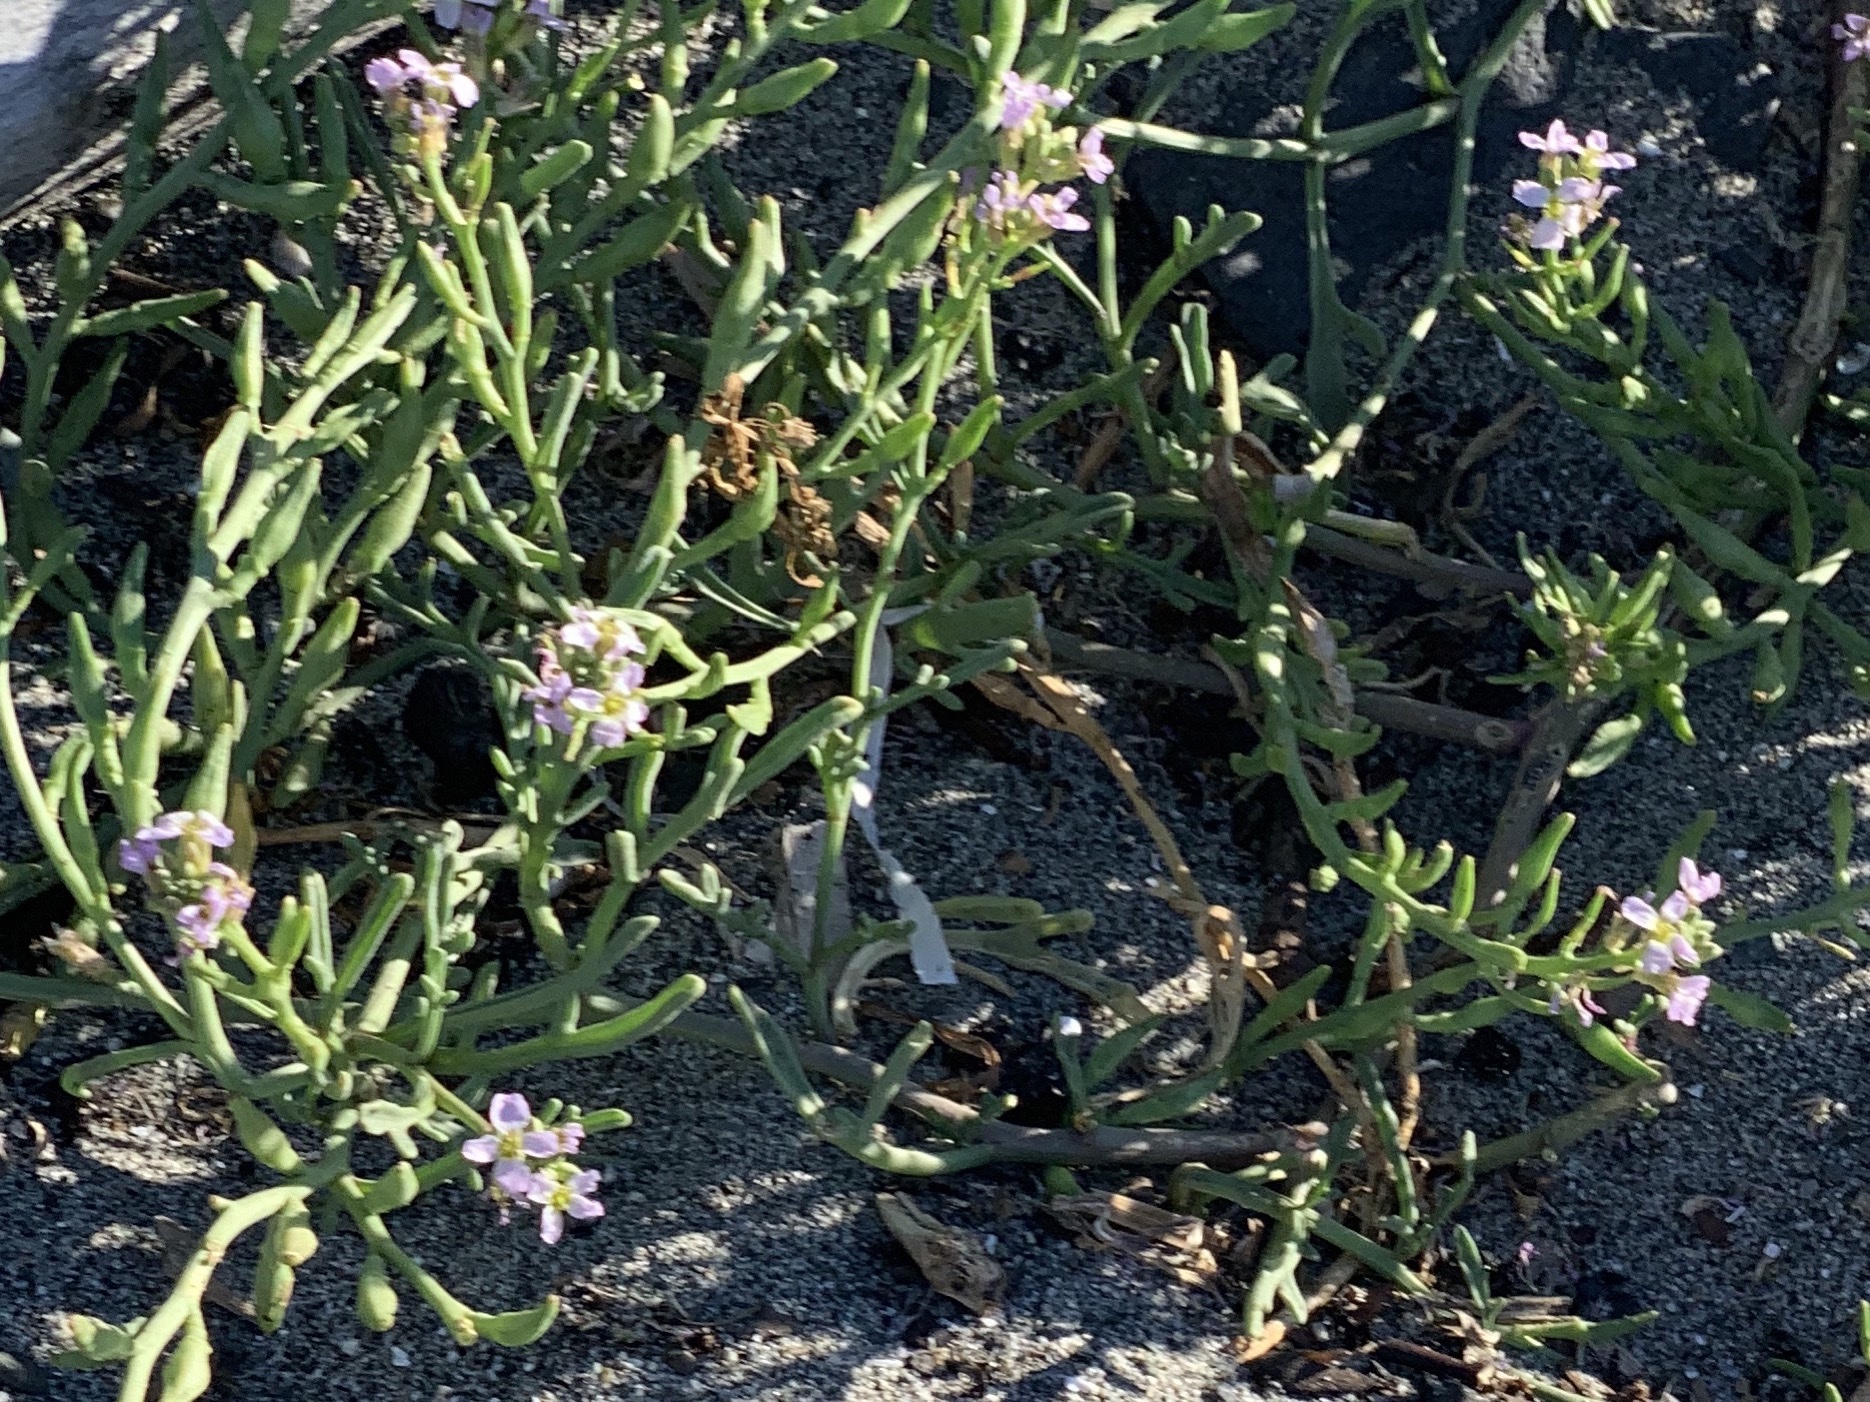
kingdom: Plantae
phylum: Tracheophyta
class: Magnoliopsida
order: Brassicales
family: Brassicaceae
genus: Cakile
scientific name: Cakile maritima
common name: Sea rocket
